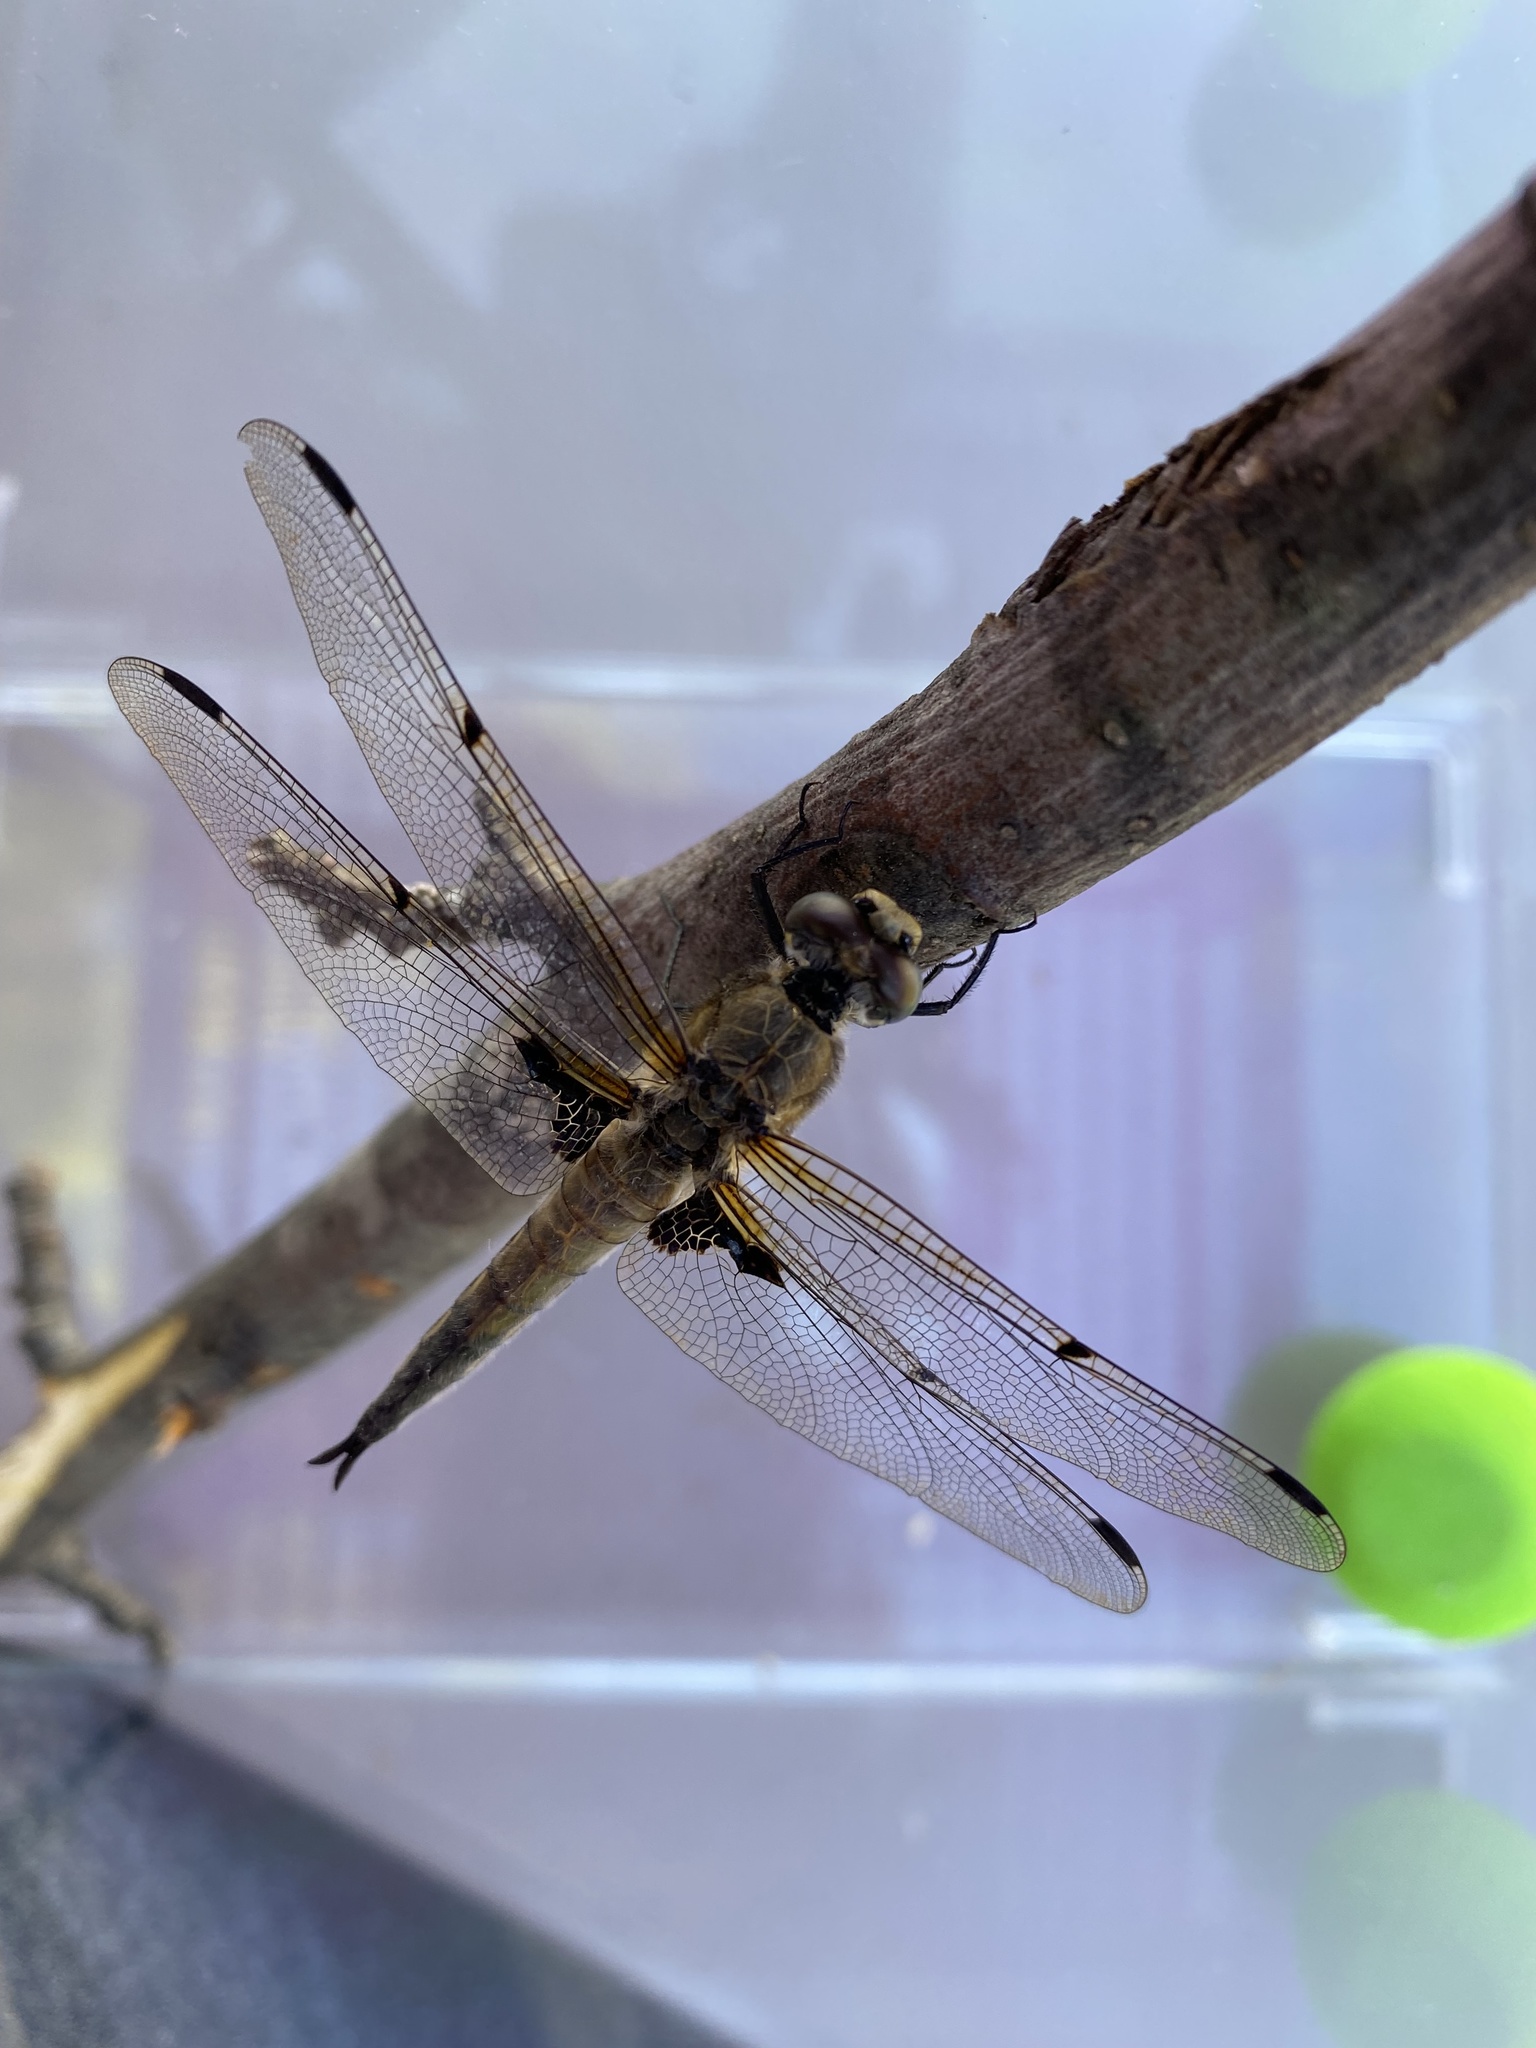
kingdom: Animalia
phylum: Arthropoda
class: Insecta
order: Odonata
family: Libellulidae
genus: Libellula
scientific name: Libellula quadrimaculata
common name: Four-spotted chaser
